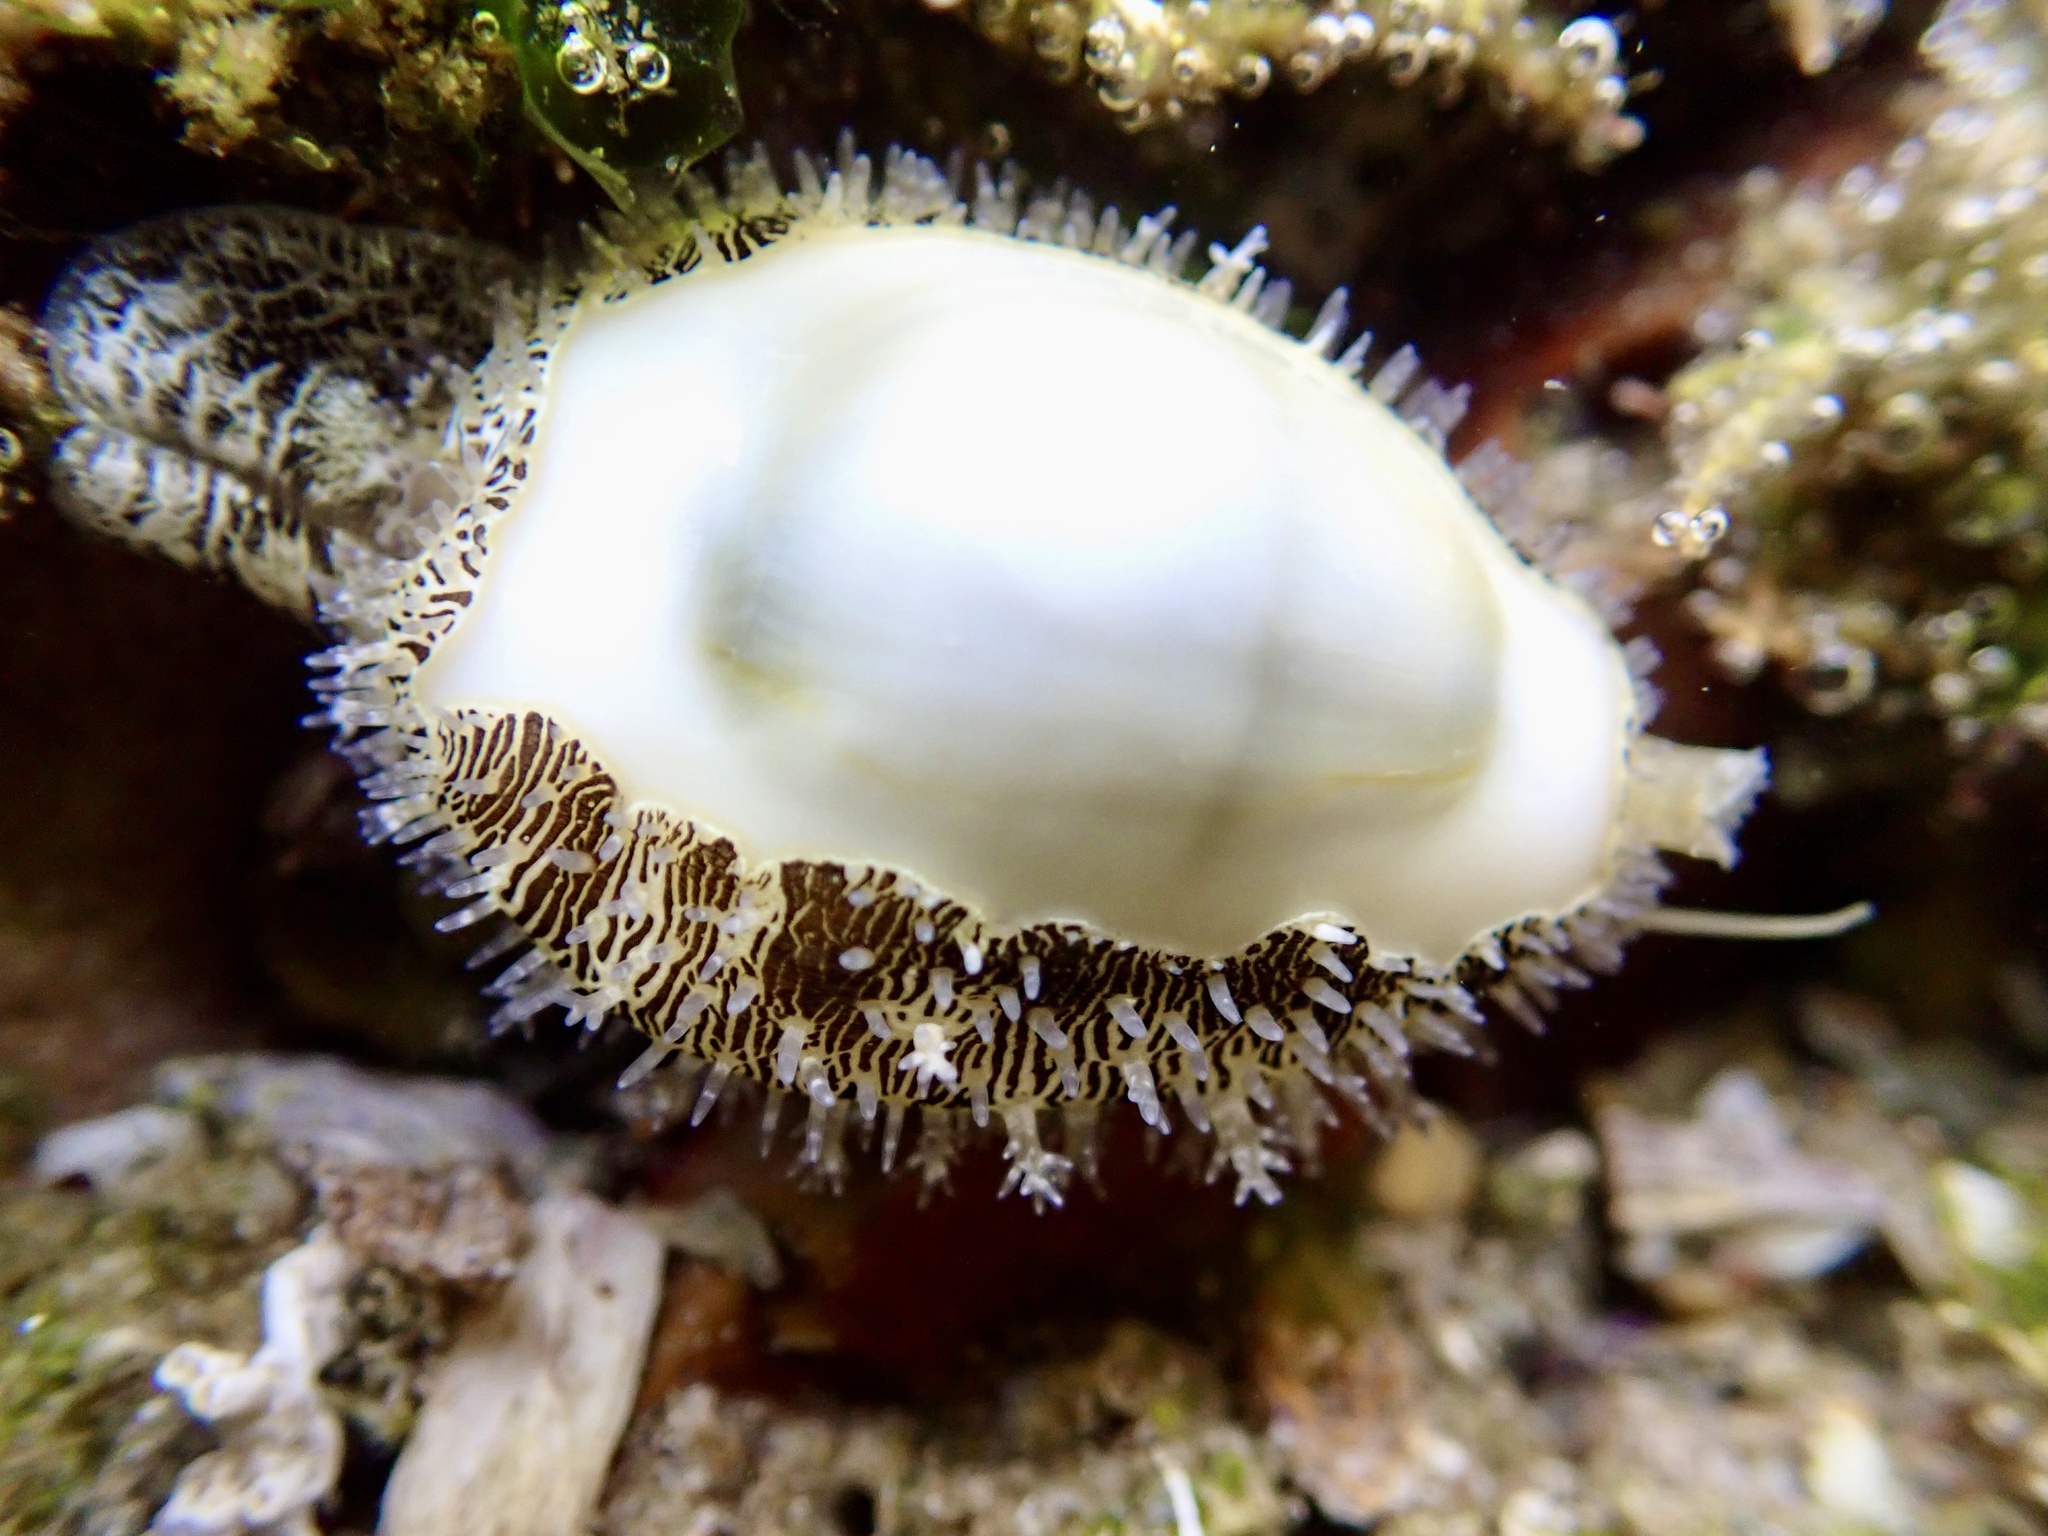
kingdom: Animalia
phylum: Mollusca
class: Gastropoda
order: Littorinimorpha
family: Cypraeidae
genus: Monetaria
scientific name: Monetaria moneta
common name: Money cowrie
